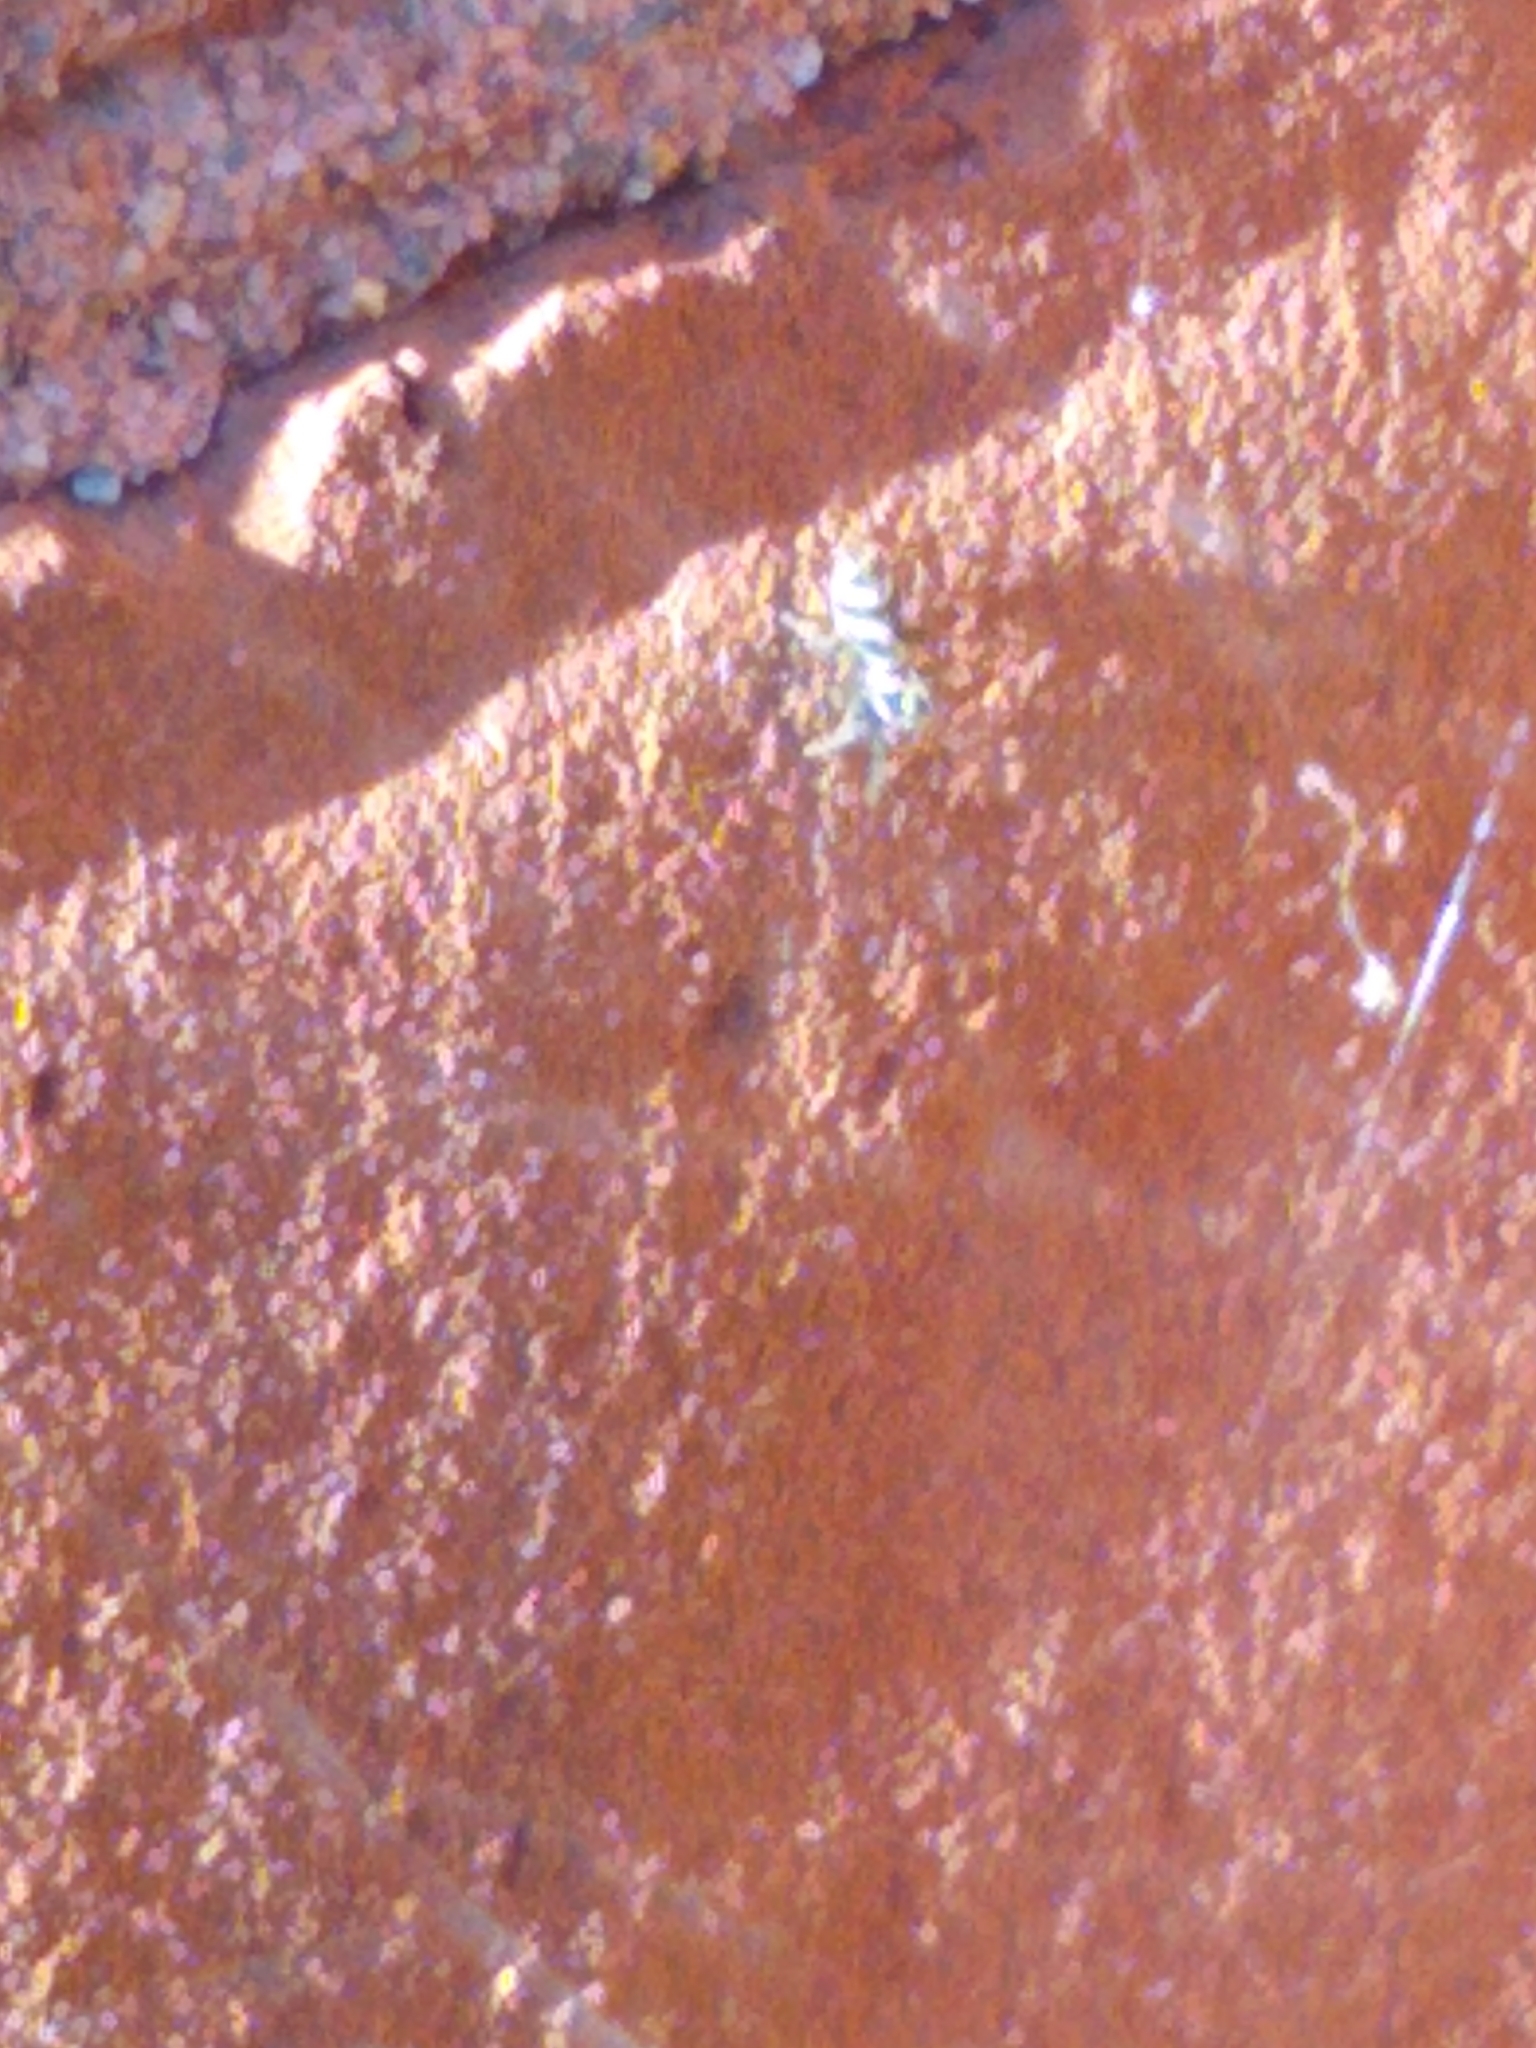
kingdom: Animalia
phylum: Arthropoda
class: Arachnida
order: Araneae
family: Salticidae
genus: Salticus
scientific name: Salticus scenicus
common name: Zebra jumper
